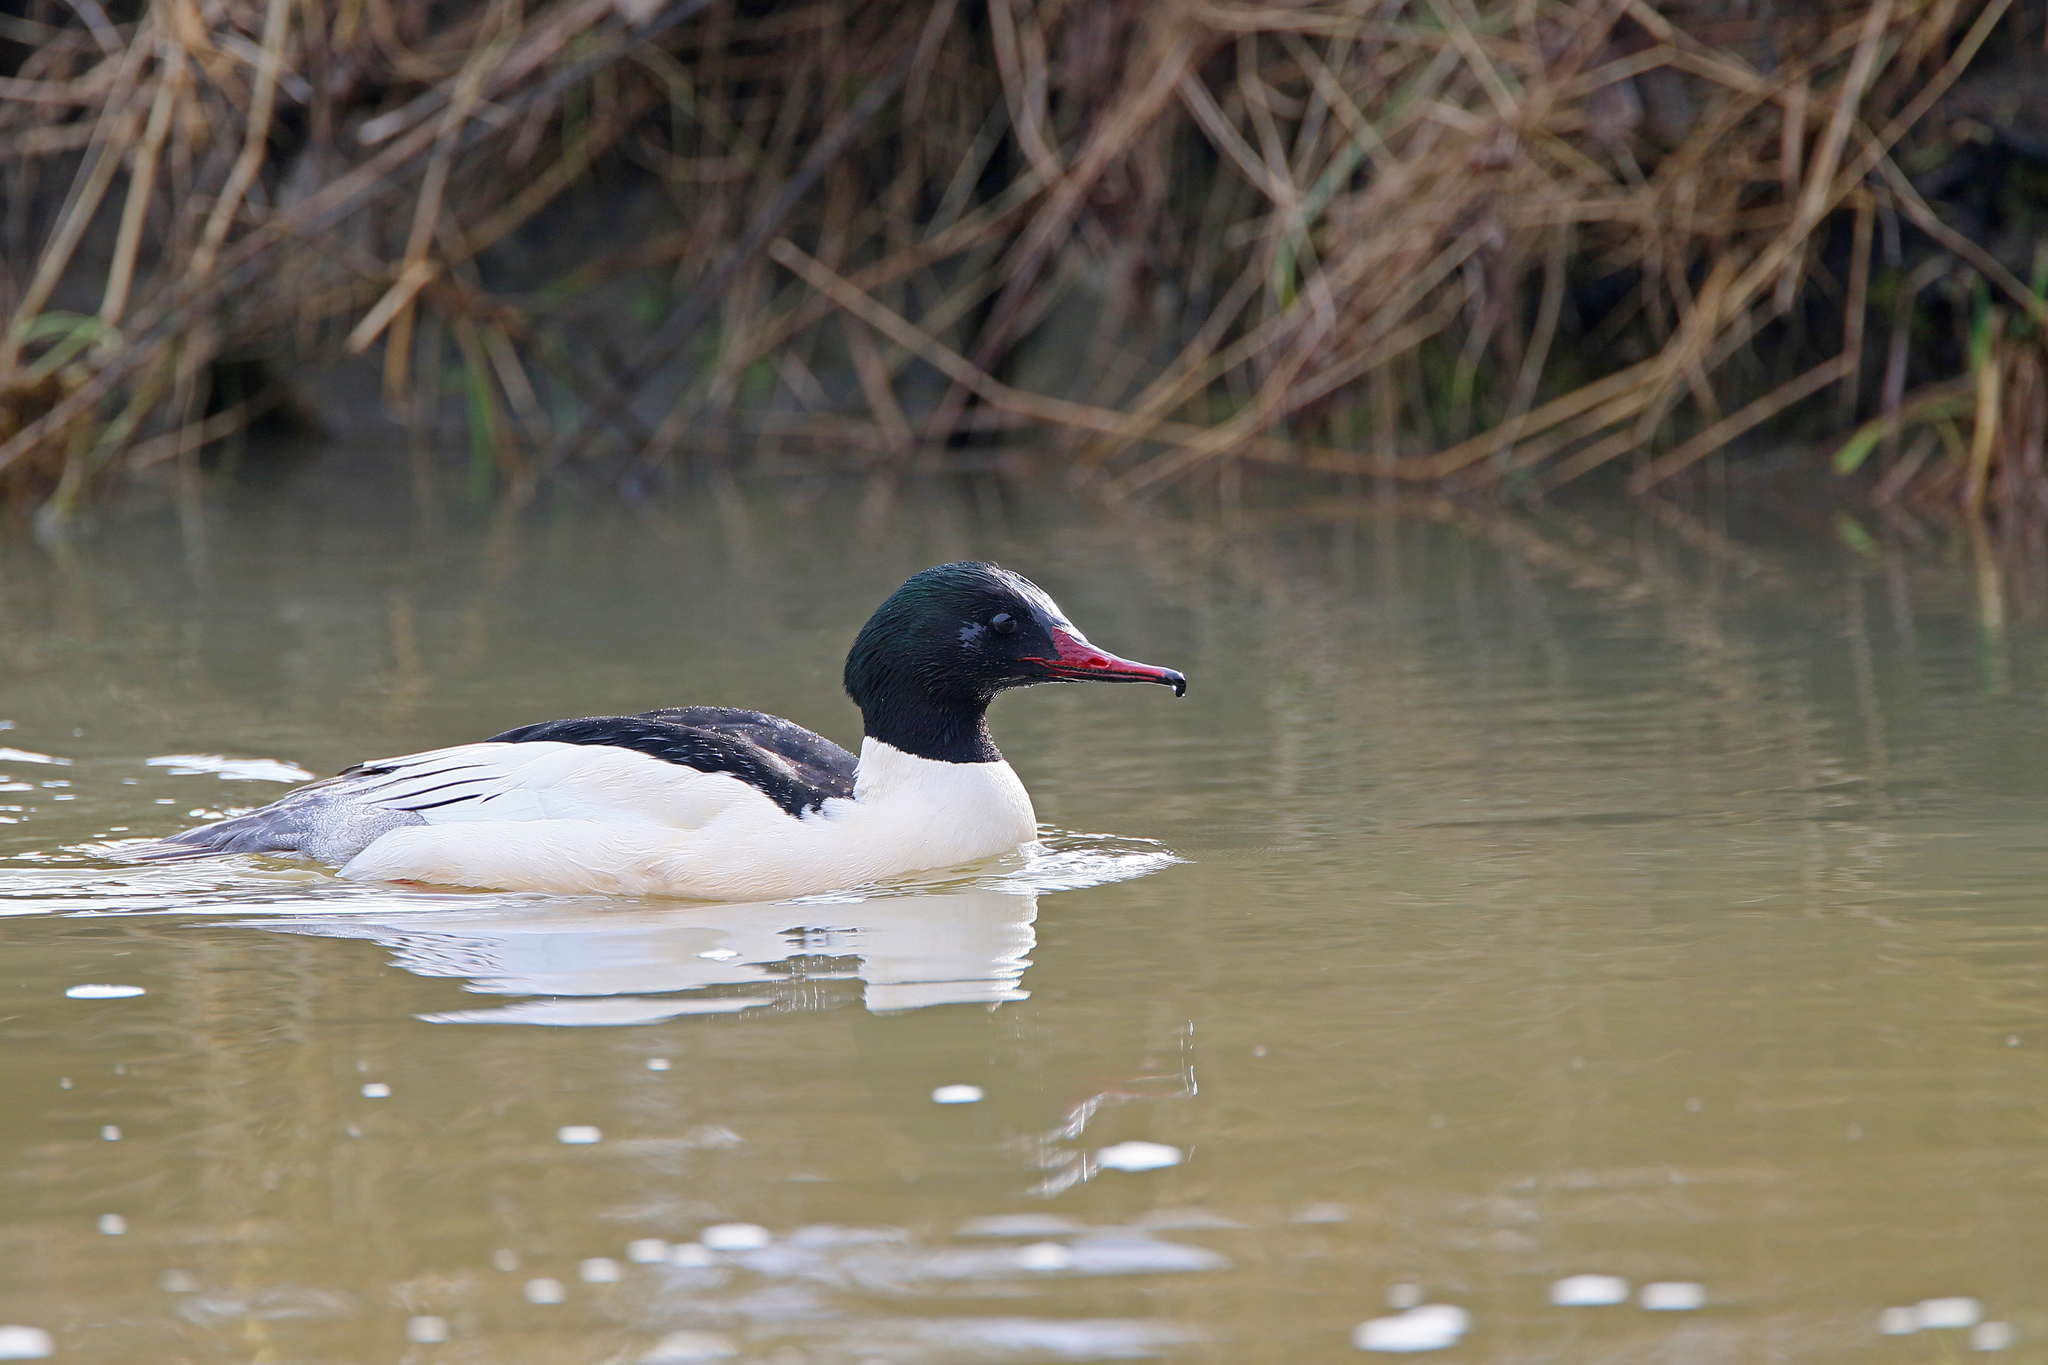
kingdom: Animalia
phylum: Chordata
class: Aves
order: Anseriformes
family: Anatidae
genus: Mergus
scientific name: Mergus merganser
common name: Common merganser
